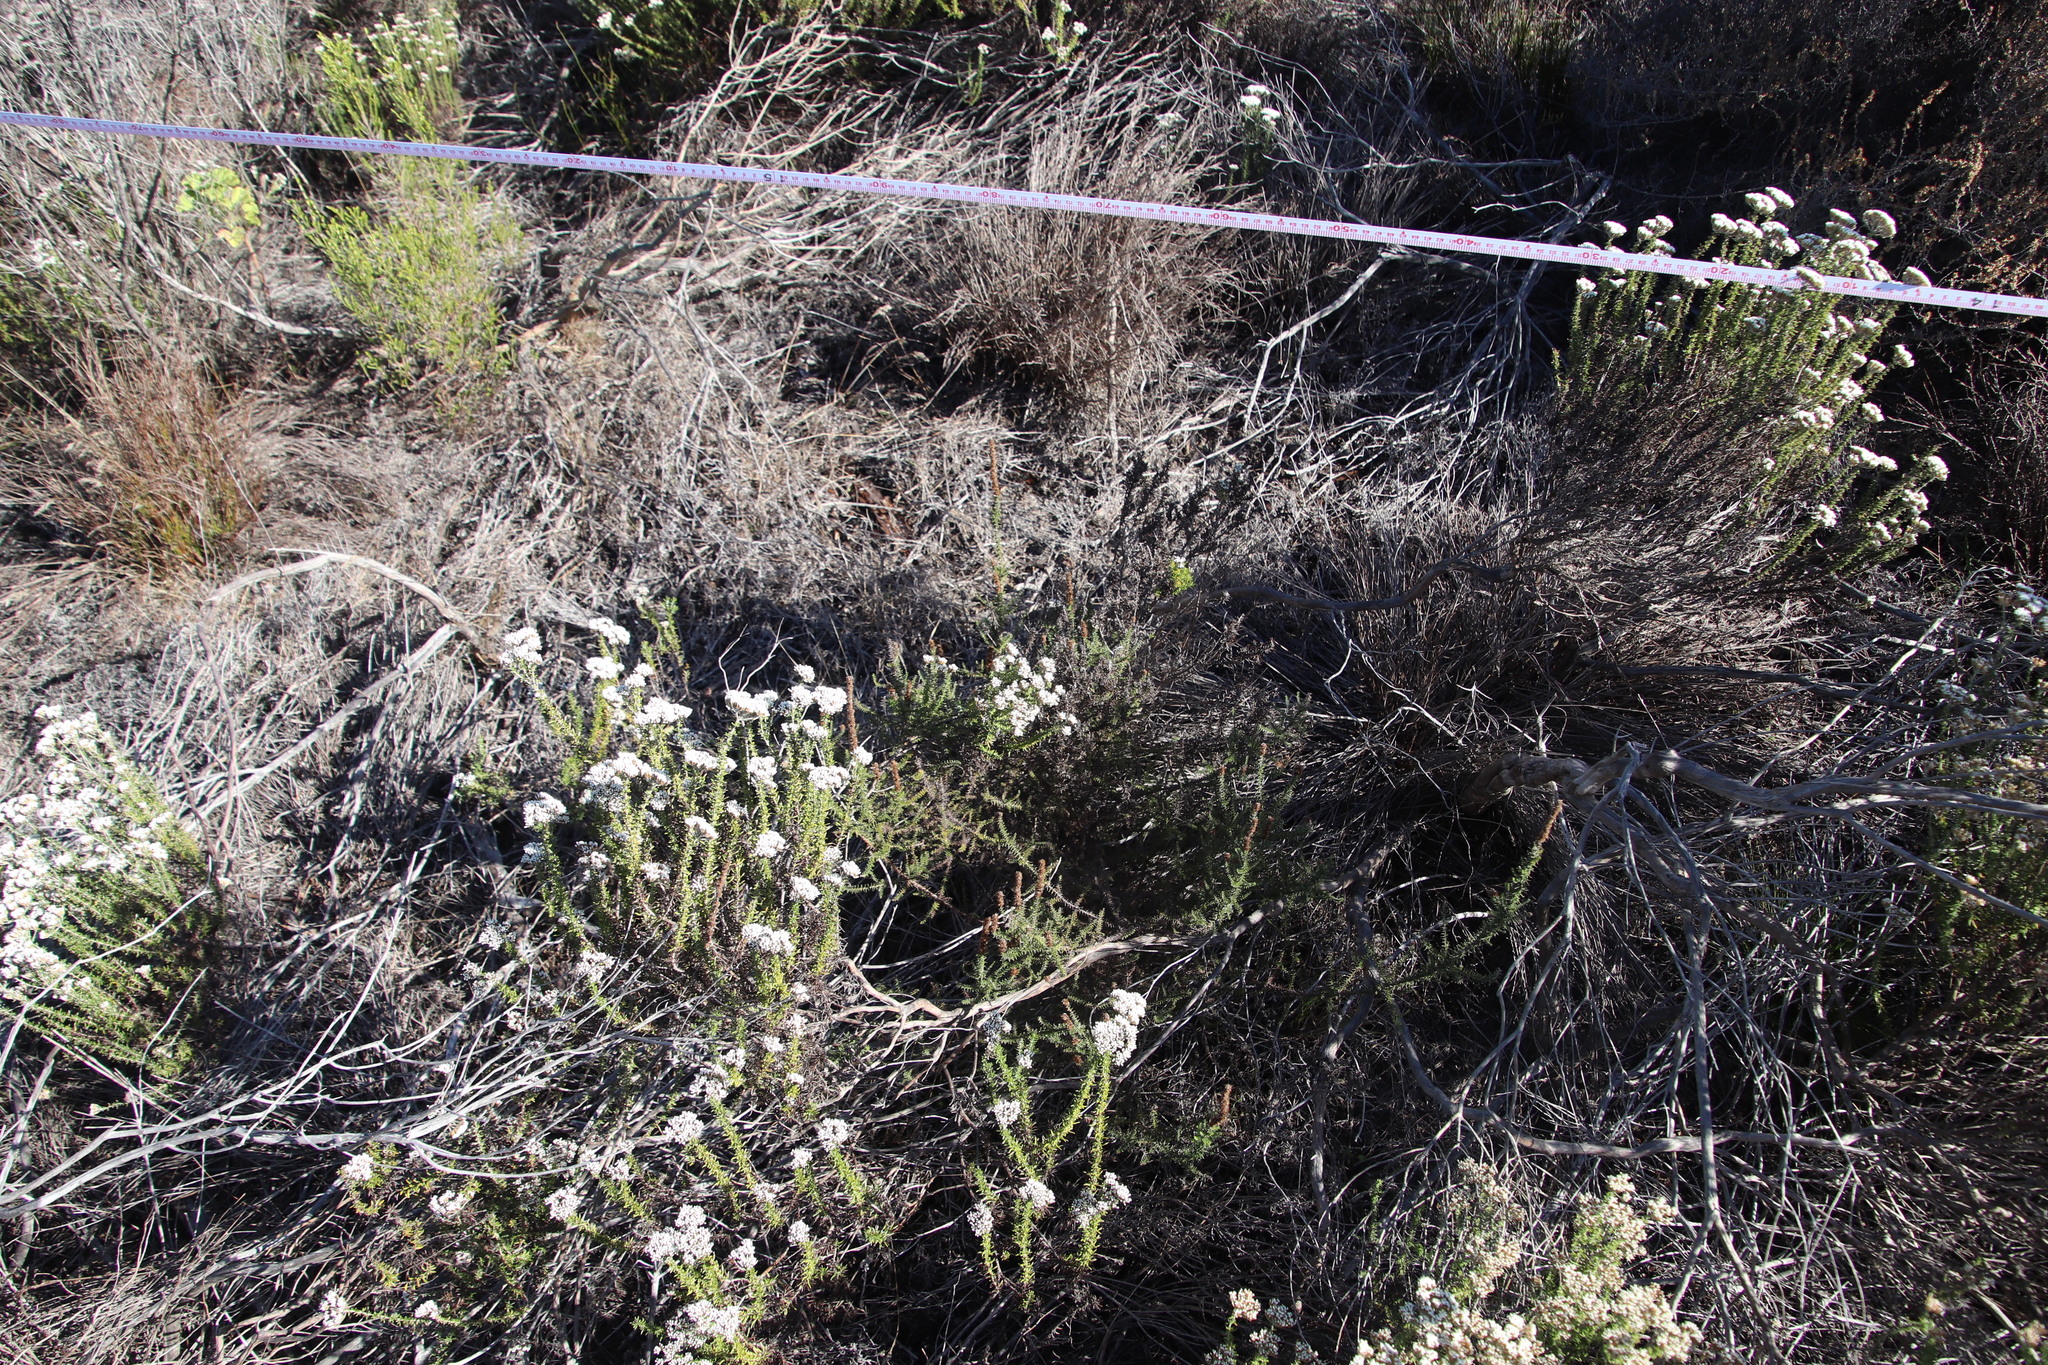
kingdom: Plantae
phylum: Tracheophyta
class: Magnoliopsida
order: Asterales
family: Asteraceae
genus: Seriphium
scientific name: Seriphium cinereum
